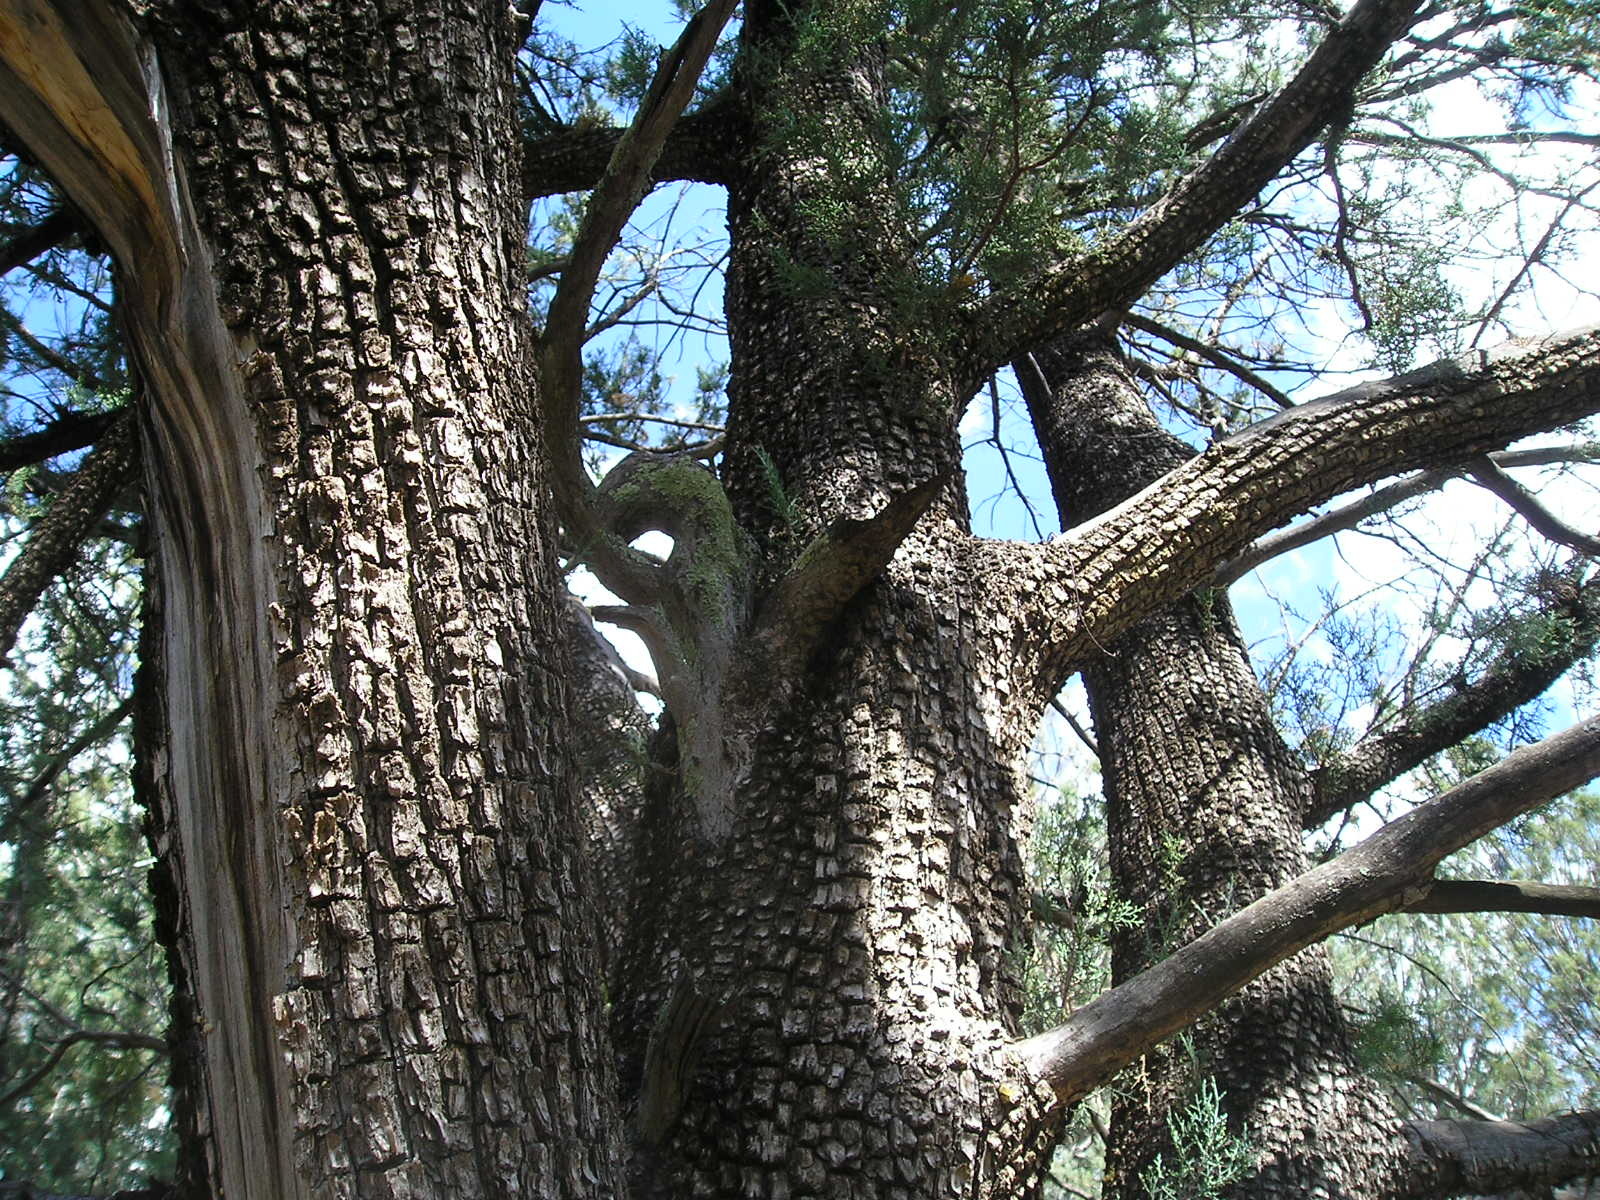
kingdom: Plantae
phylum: Tracheophyta
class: Pinopsida
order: Pinales
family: Cupressaceae
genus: Juniperus
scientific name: Juniperus deppeana
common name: Alligator juniper
